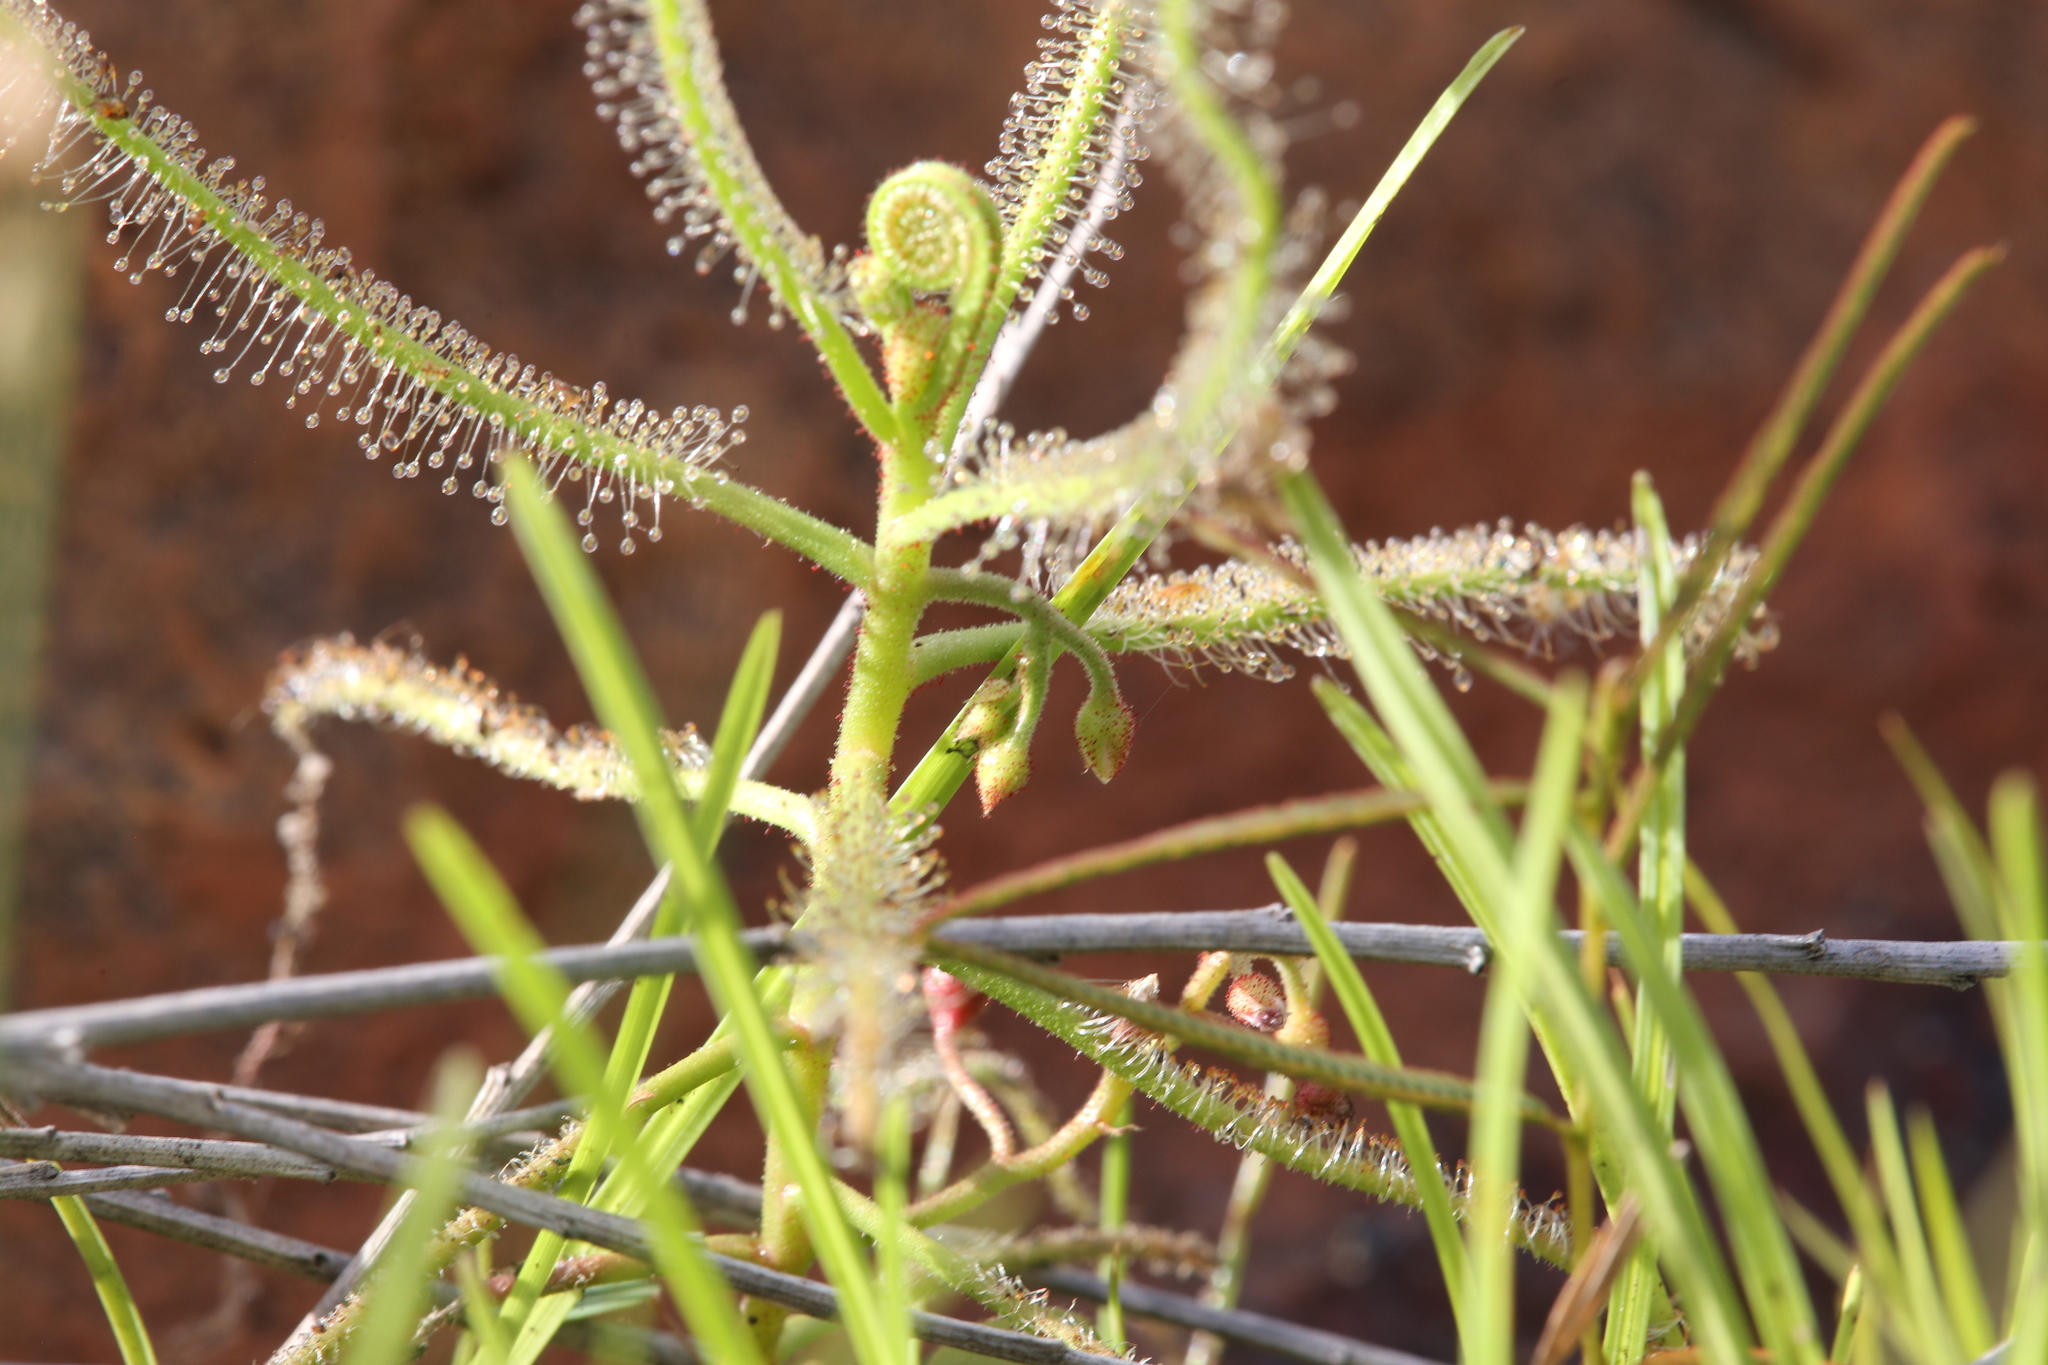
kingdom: Plantae
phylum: Tracheophyta
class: Magnoliopsida
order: Caryophyllales
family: Droseraceae
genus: Drosera
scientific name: Drosera indica
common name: Indian sundew
